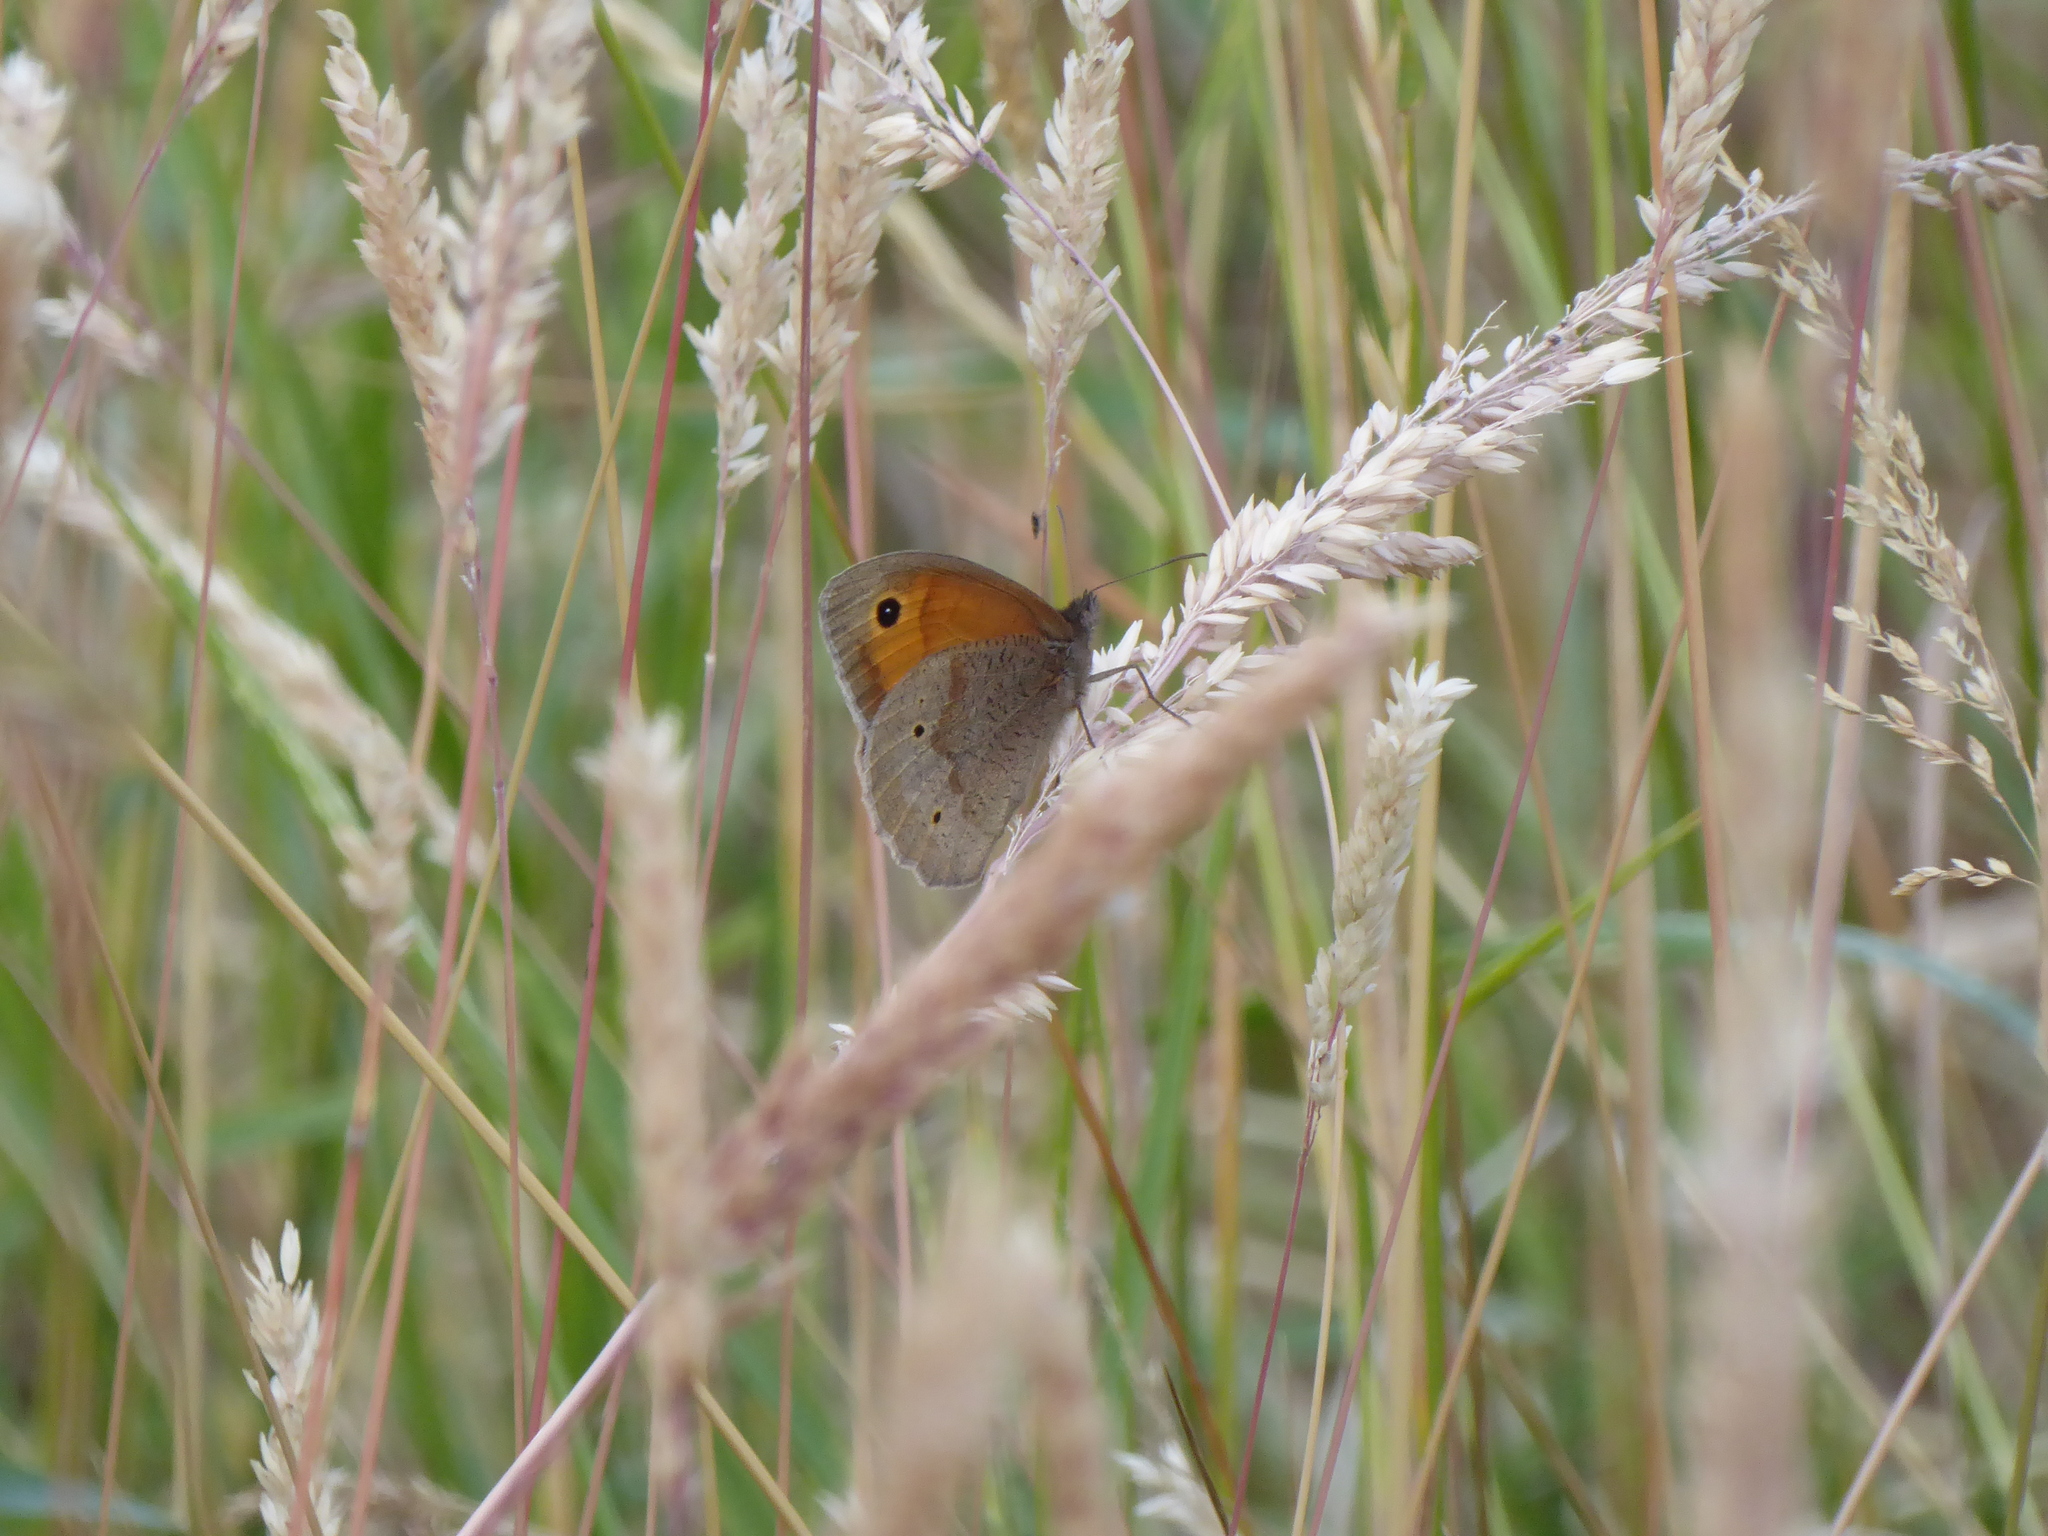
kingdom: Animalia
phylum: Arthropoda
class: Insecta
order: Lepidoptera
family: Nymphalidae
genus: Maniola
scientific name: Maniola jurtina
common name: Meadow brown
